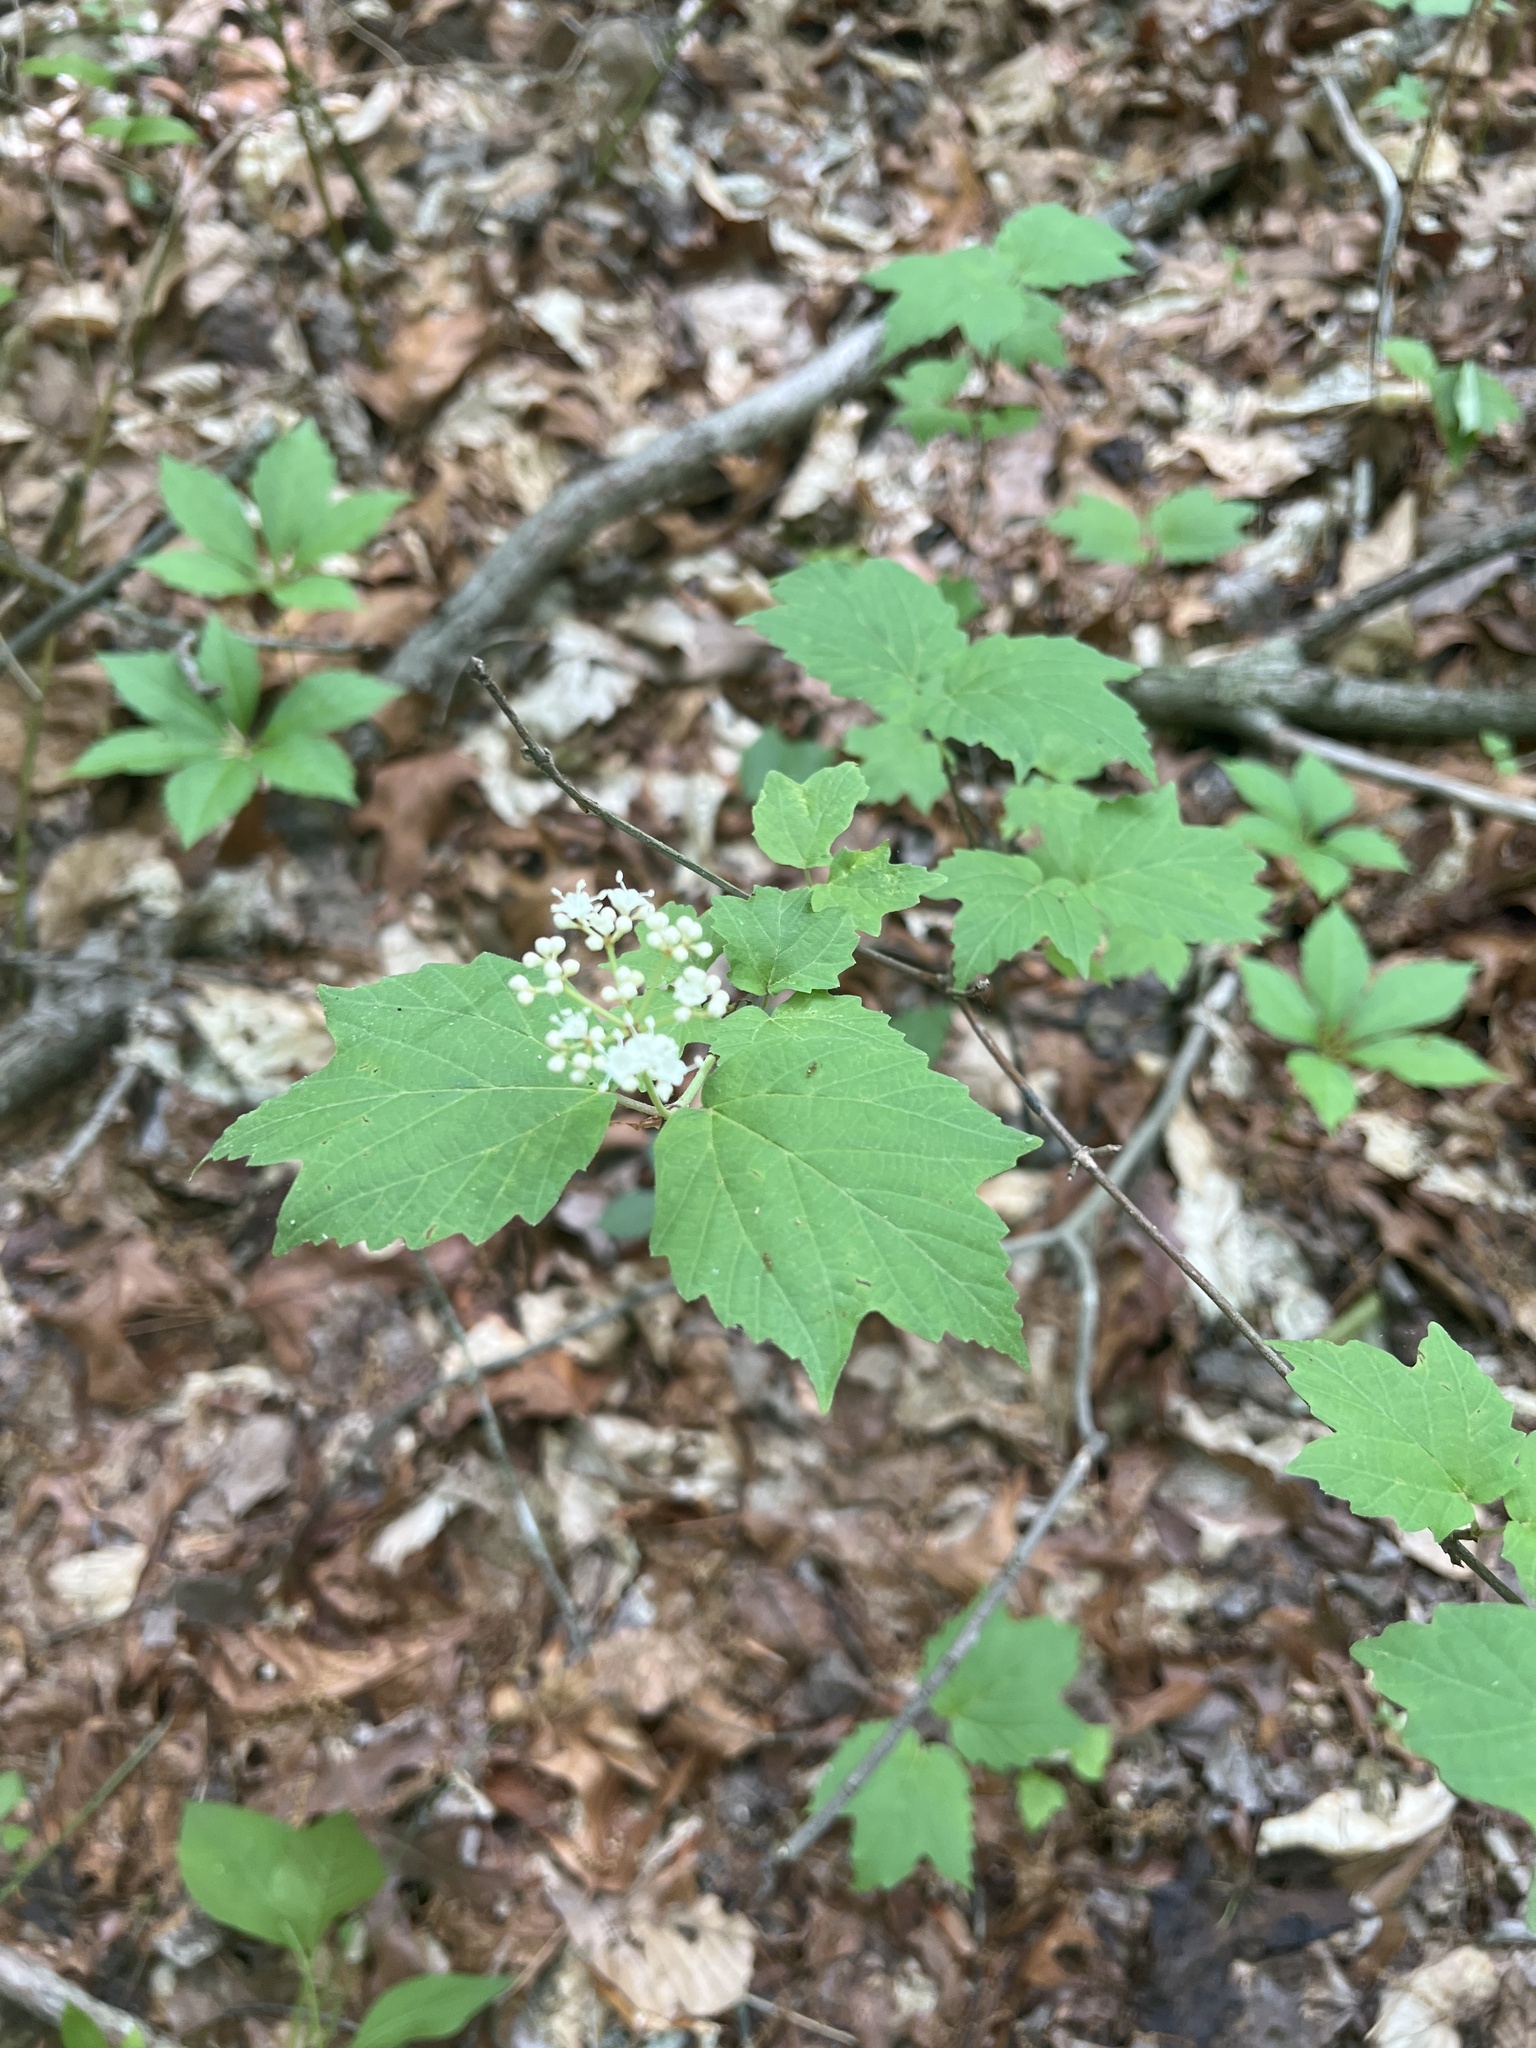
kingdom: Plantae
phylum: Tracheophyta
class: Magnoliopsida
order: Dipsacales
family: Viburnaceae
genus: Viburnum
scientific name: Viburnum acerifolium
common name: Dockmackie
